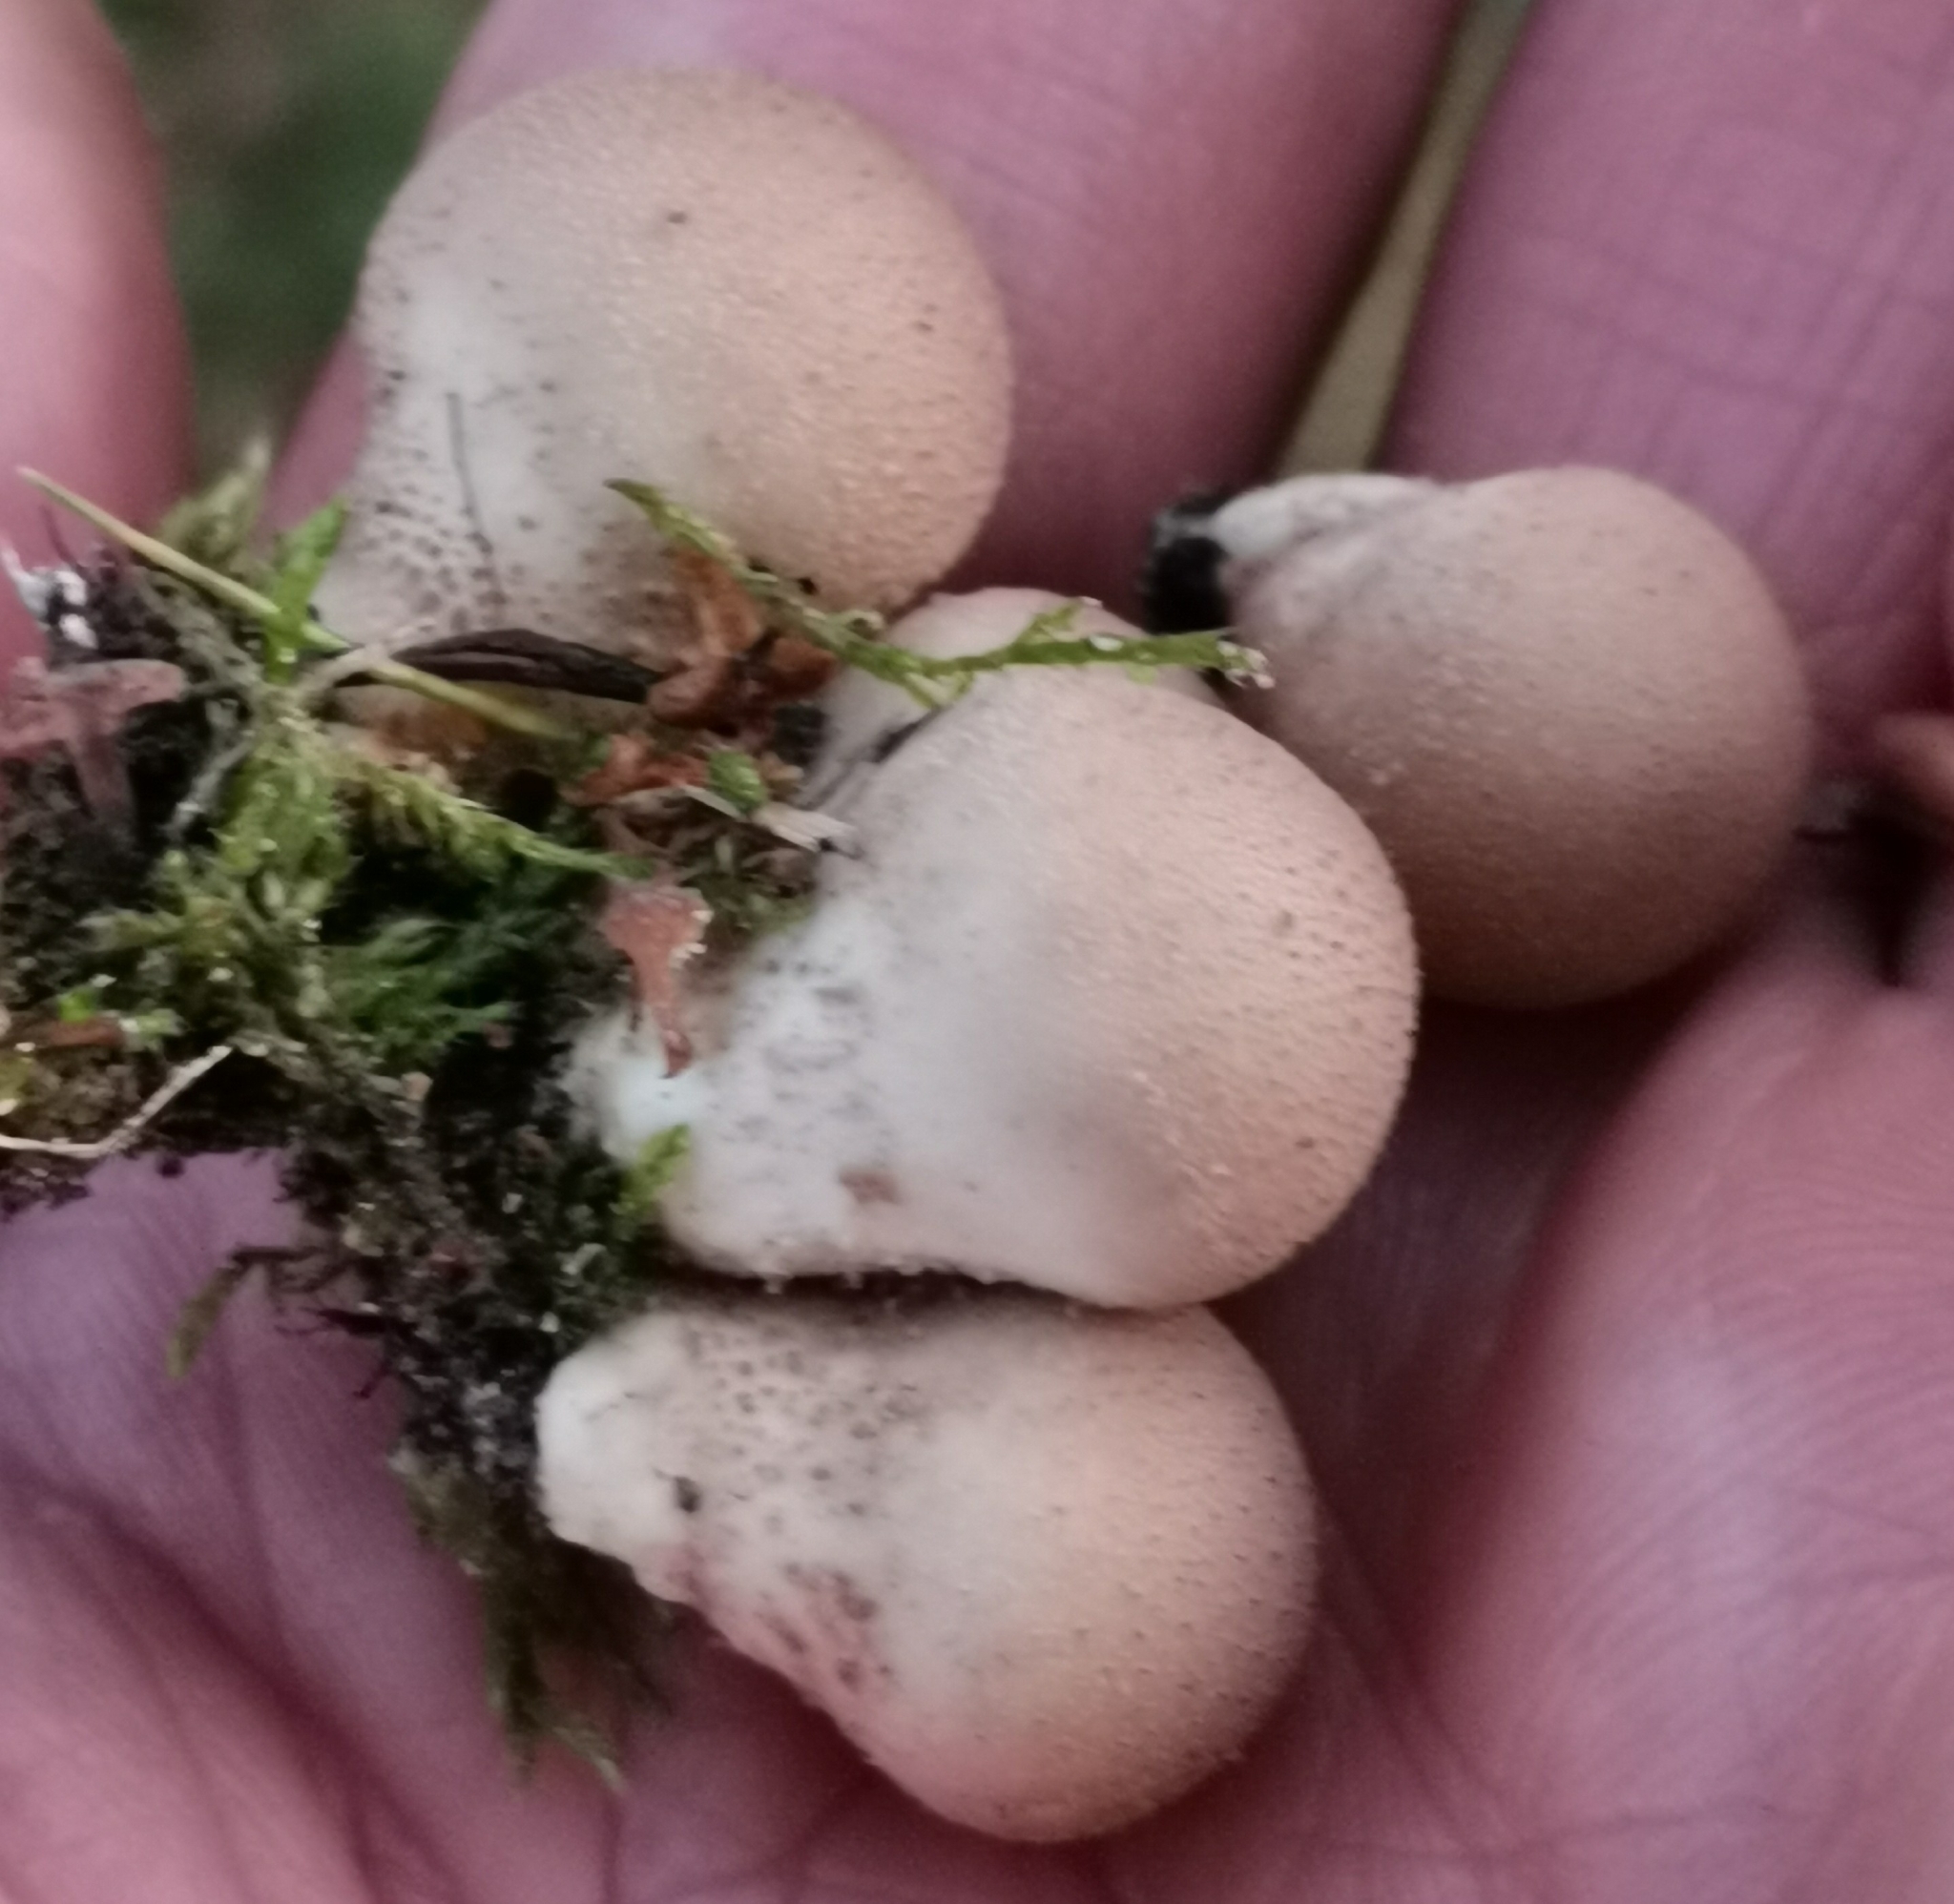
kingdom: Fungi
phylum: Basidiomycota
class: Agaricomycetes
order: Agaricales
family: Lycoperdaceae
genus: Apioperdon
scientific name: Apioperdon pyriforme
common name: Pear-shaped puffball
